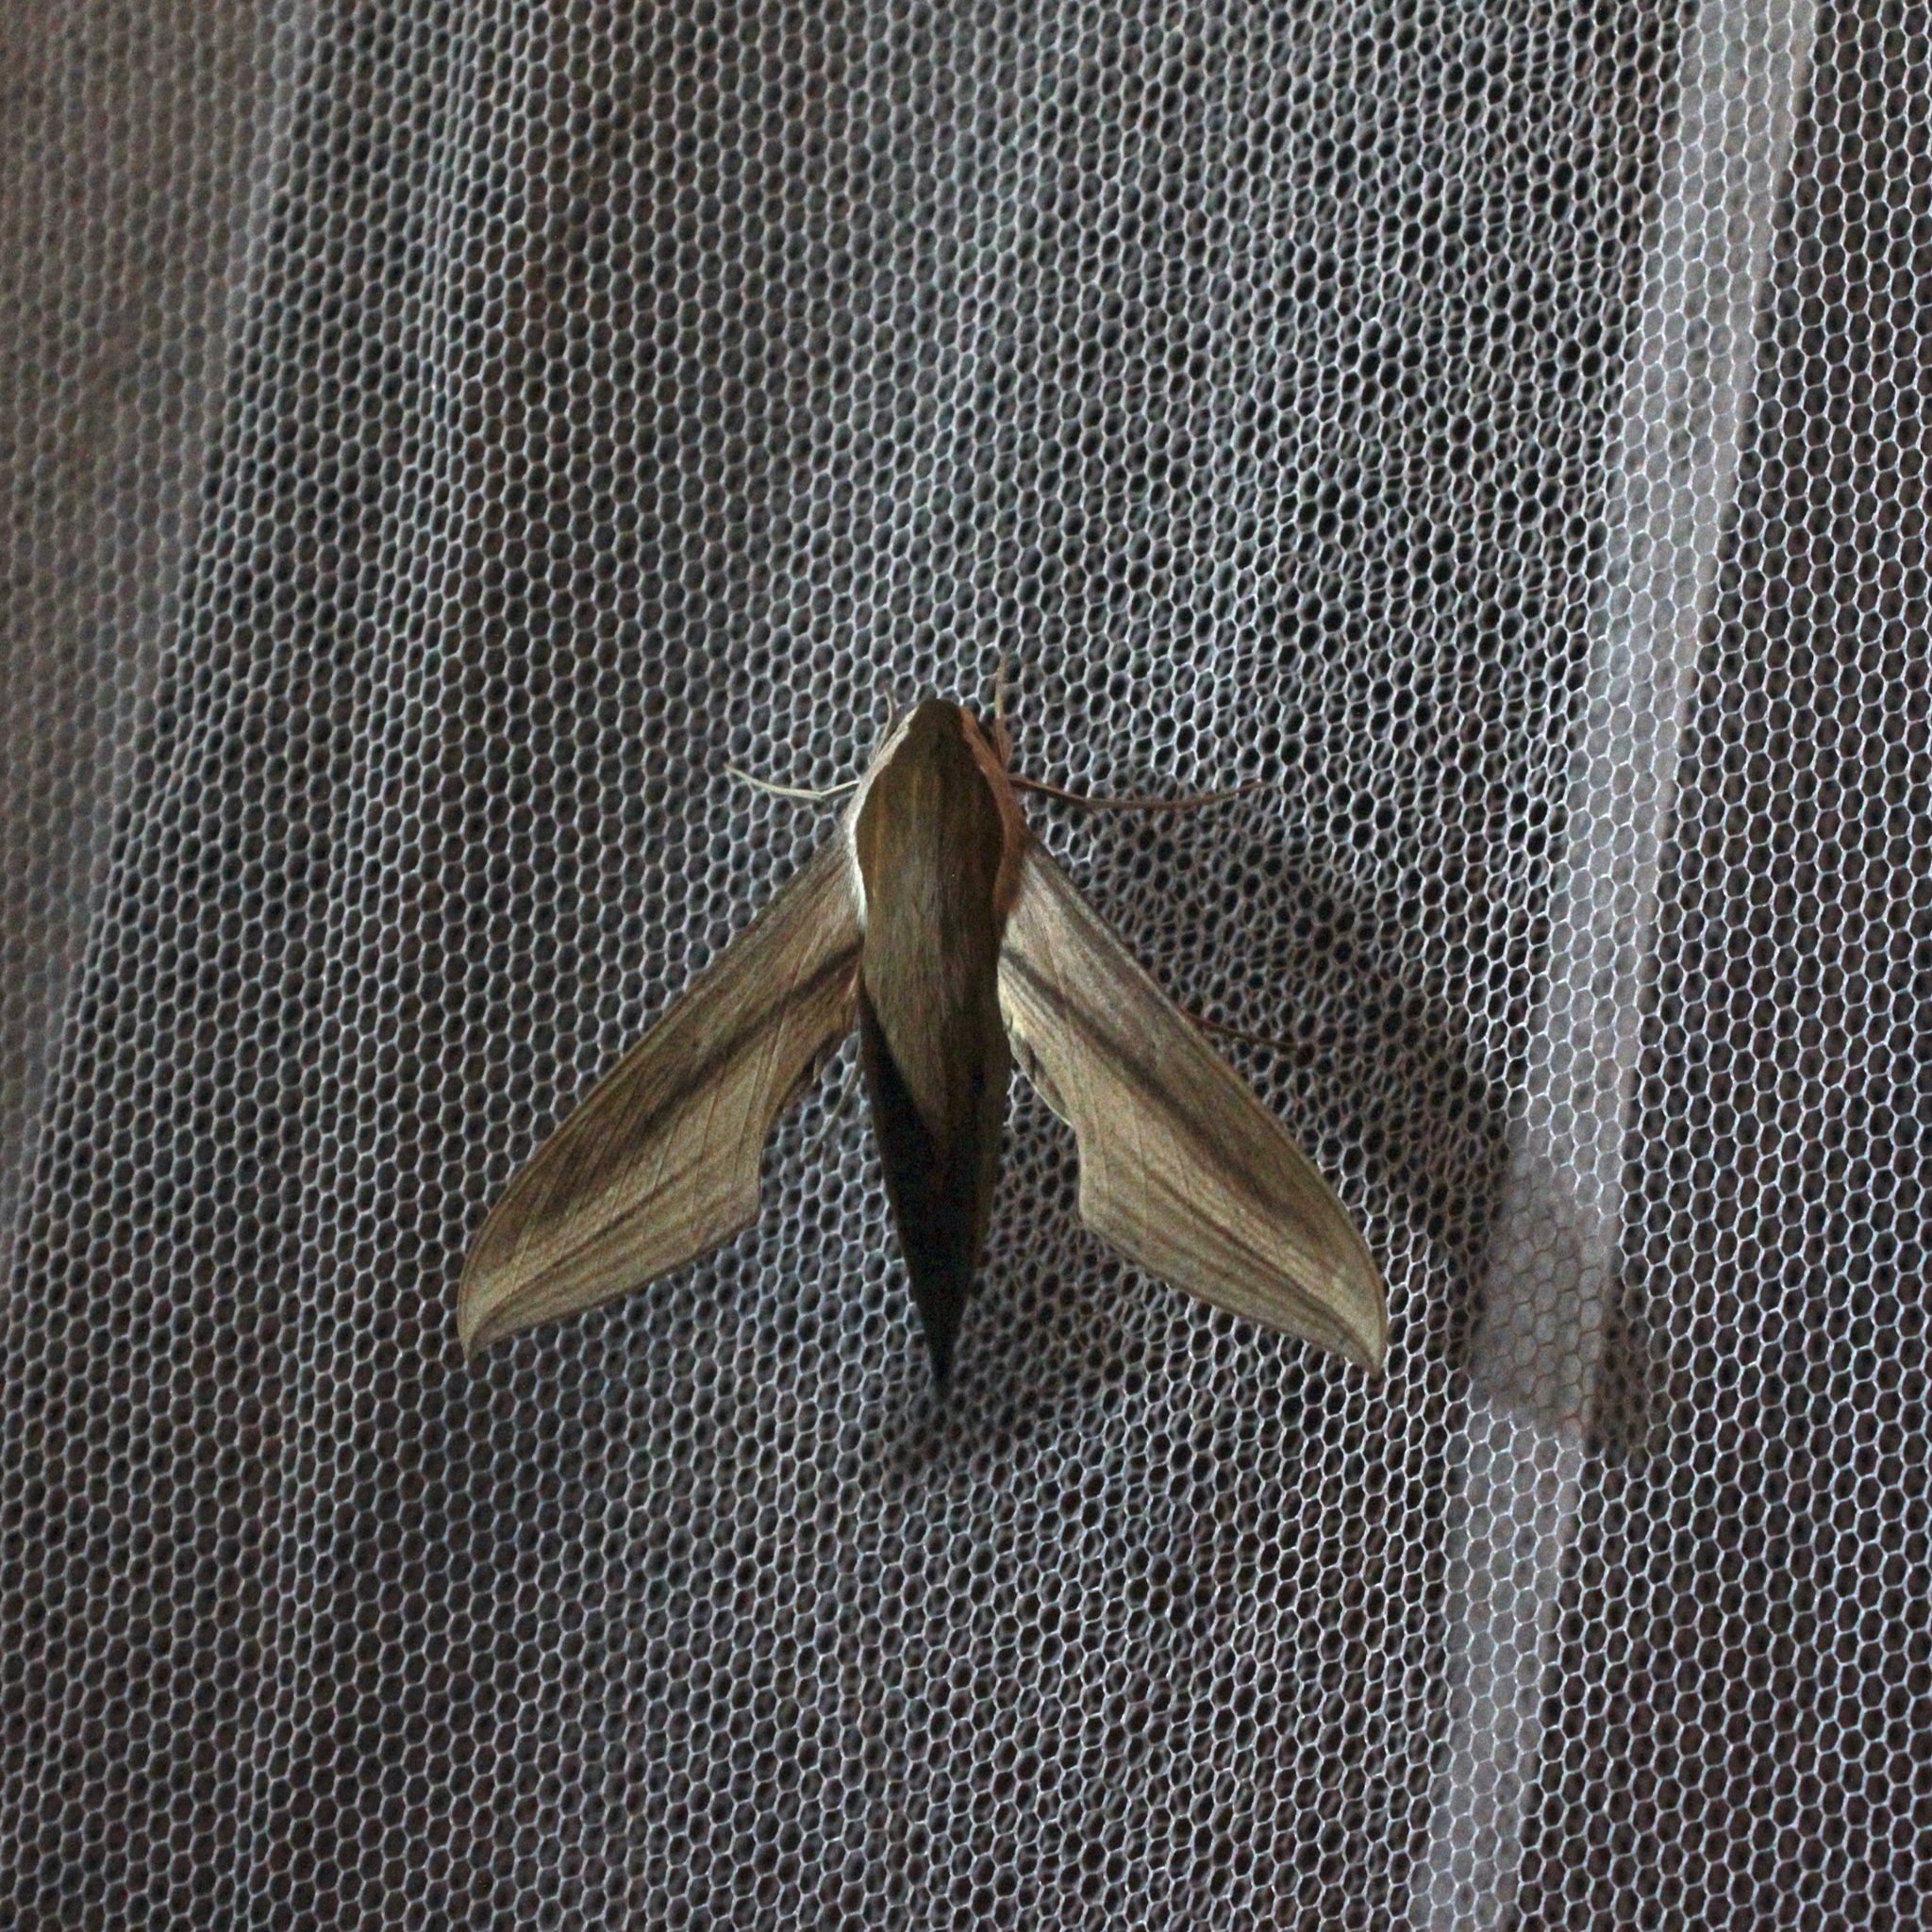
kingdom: Animalia
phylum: Arthropoda
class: Insecta
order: Lepidoptera
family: Sphingidae
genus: Xylophanes
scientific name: Xylophanes tersa
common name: Tersa sphinx
